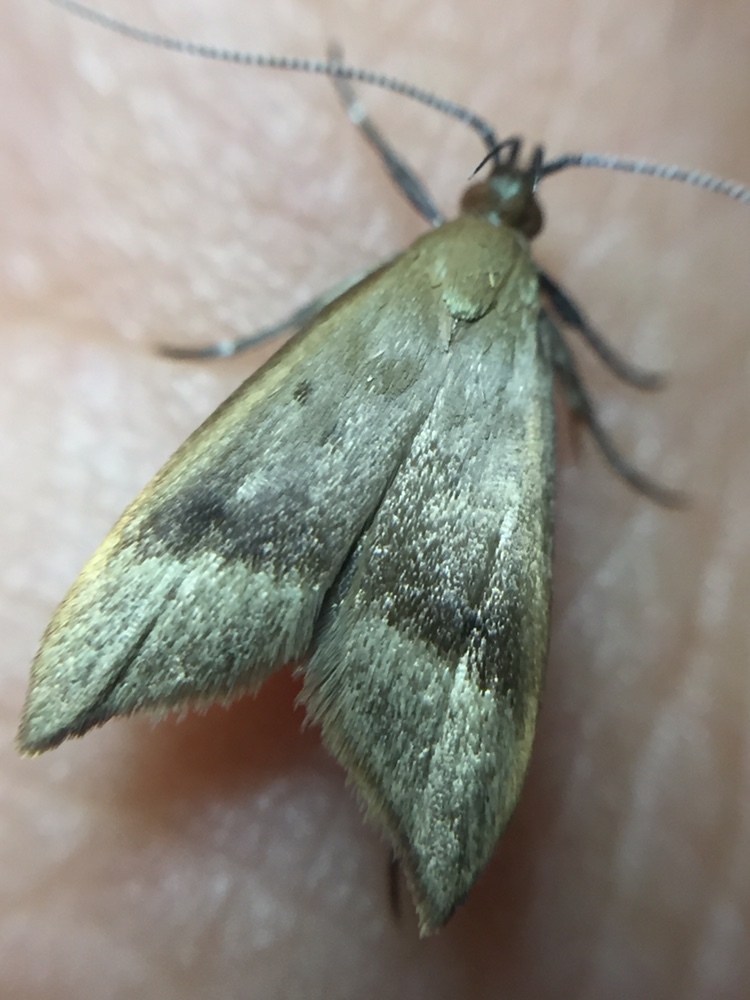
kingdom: Animalia
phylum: Arthropoda
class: Insecta
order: Lepidoptera
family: Oecophoridae
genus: Gymnobathra
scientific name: Gymnobathra hyetodes
